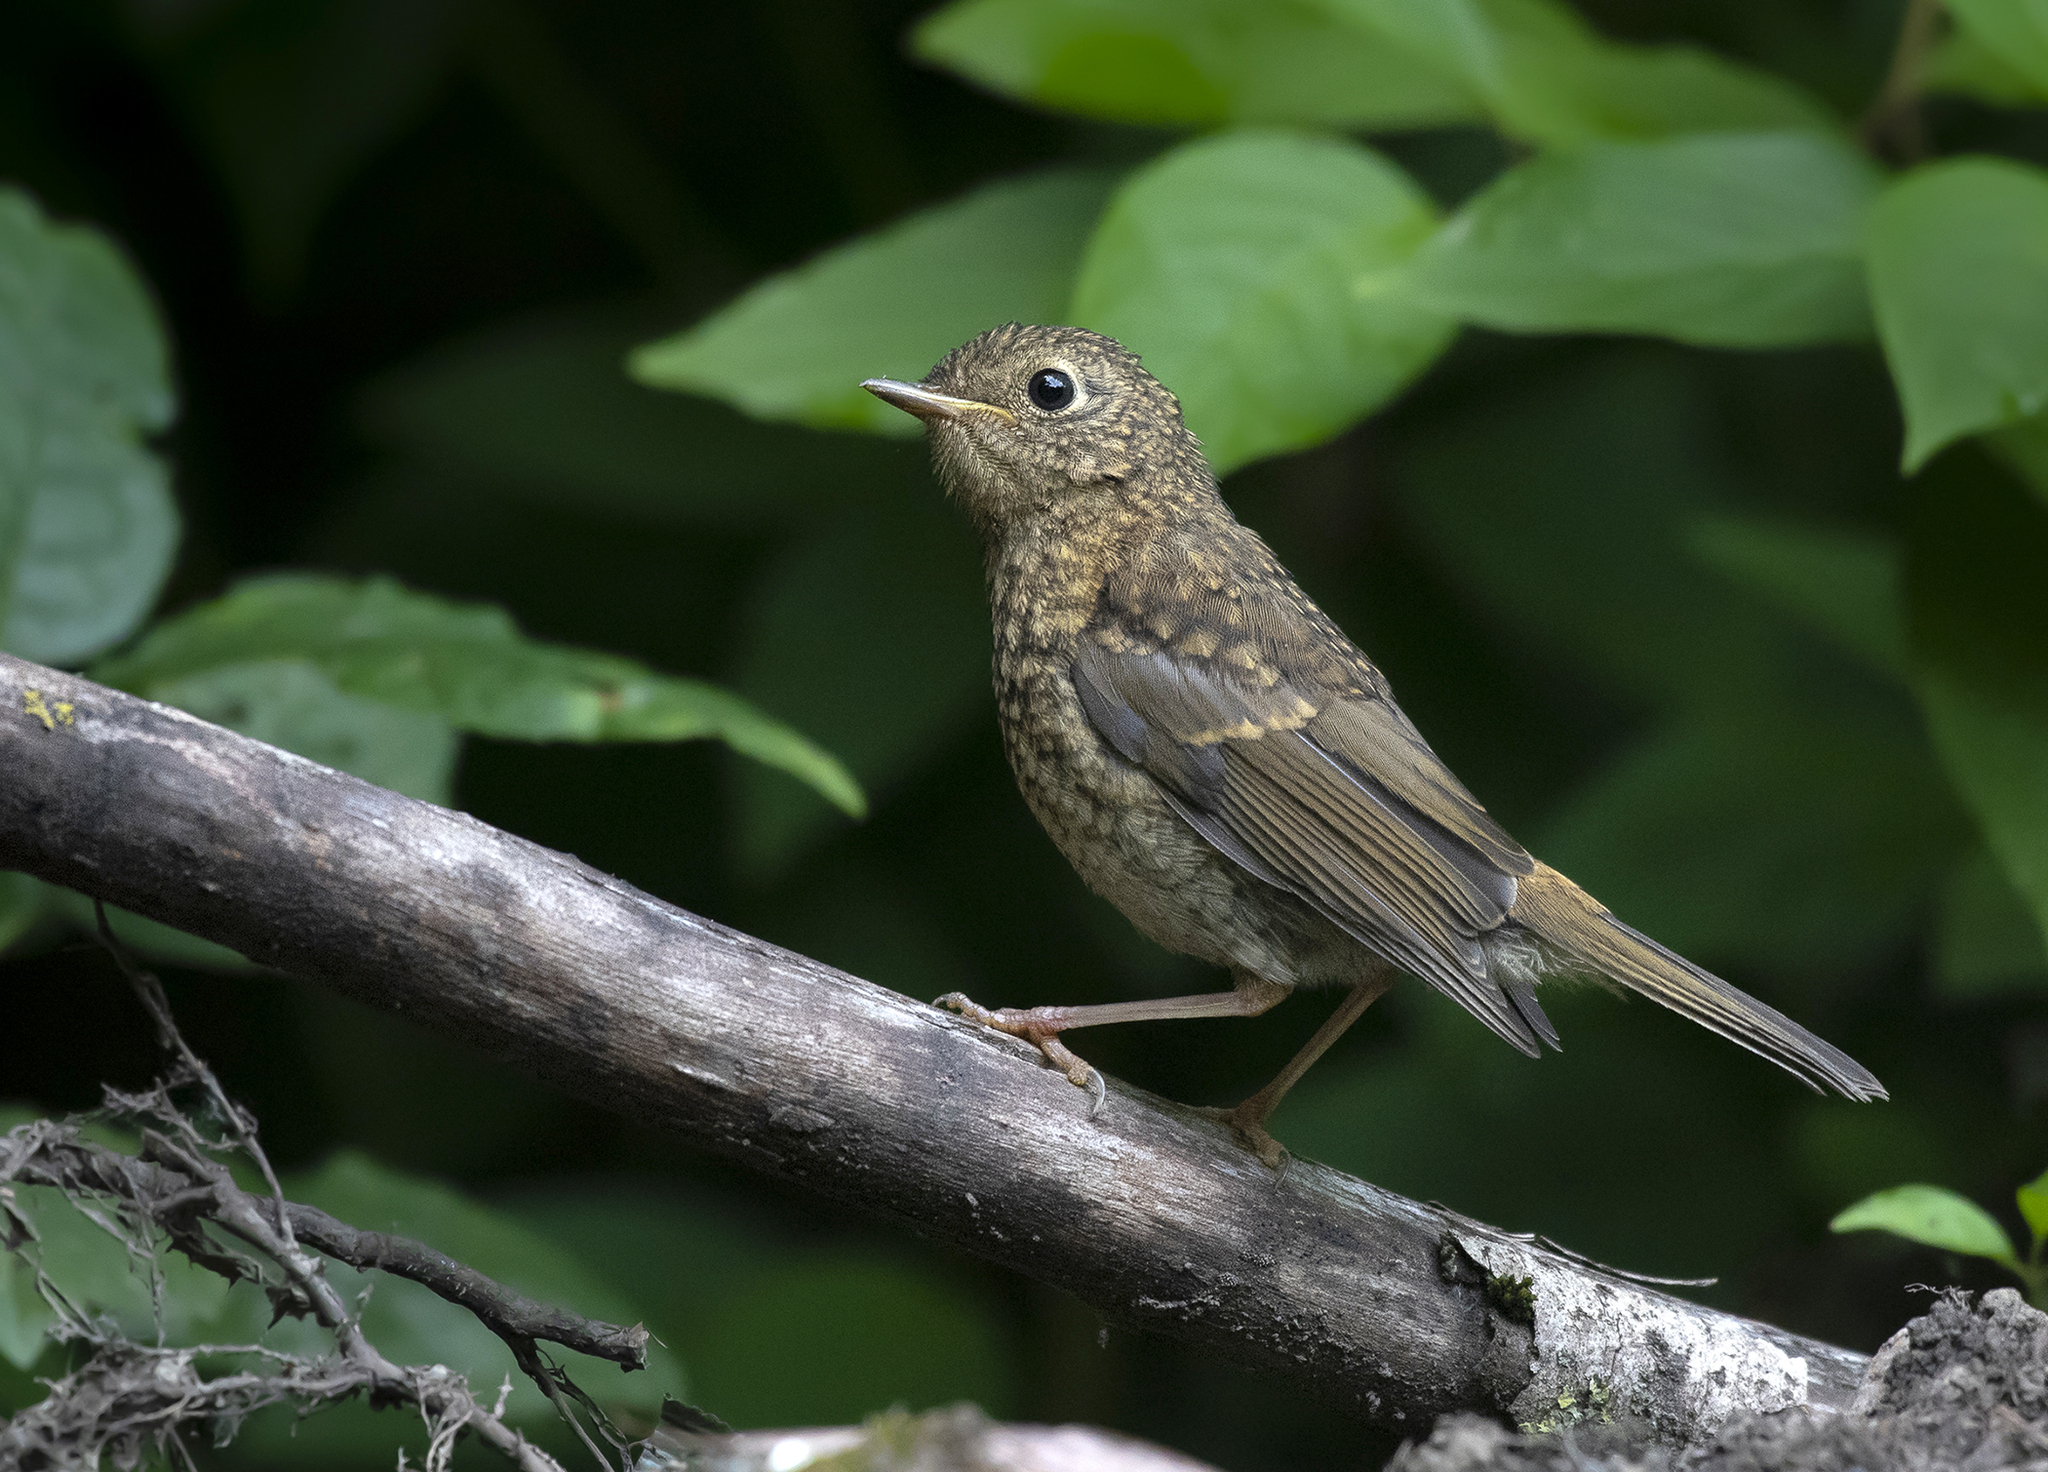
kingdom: Animalia
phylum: Chordata
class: Aves
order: Passeriformes
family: Muscicapidae
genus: Erithacus
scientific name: Erithacus rubecula
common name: European robin
